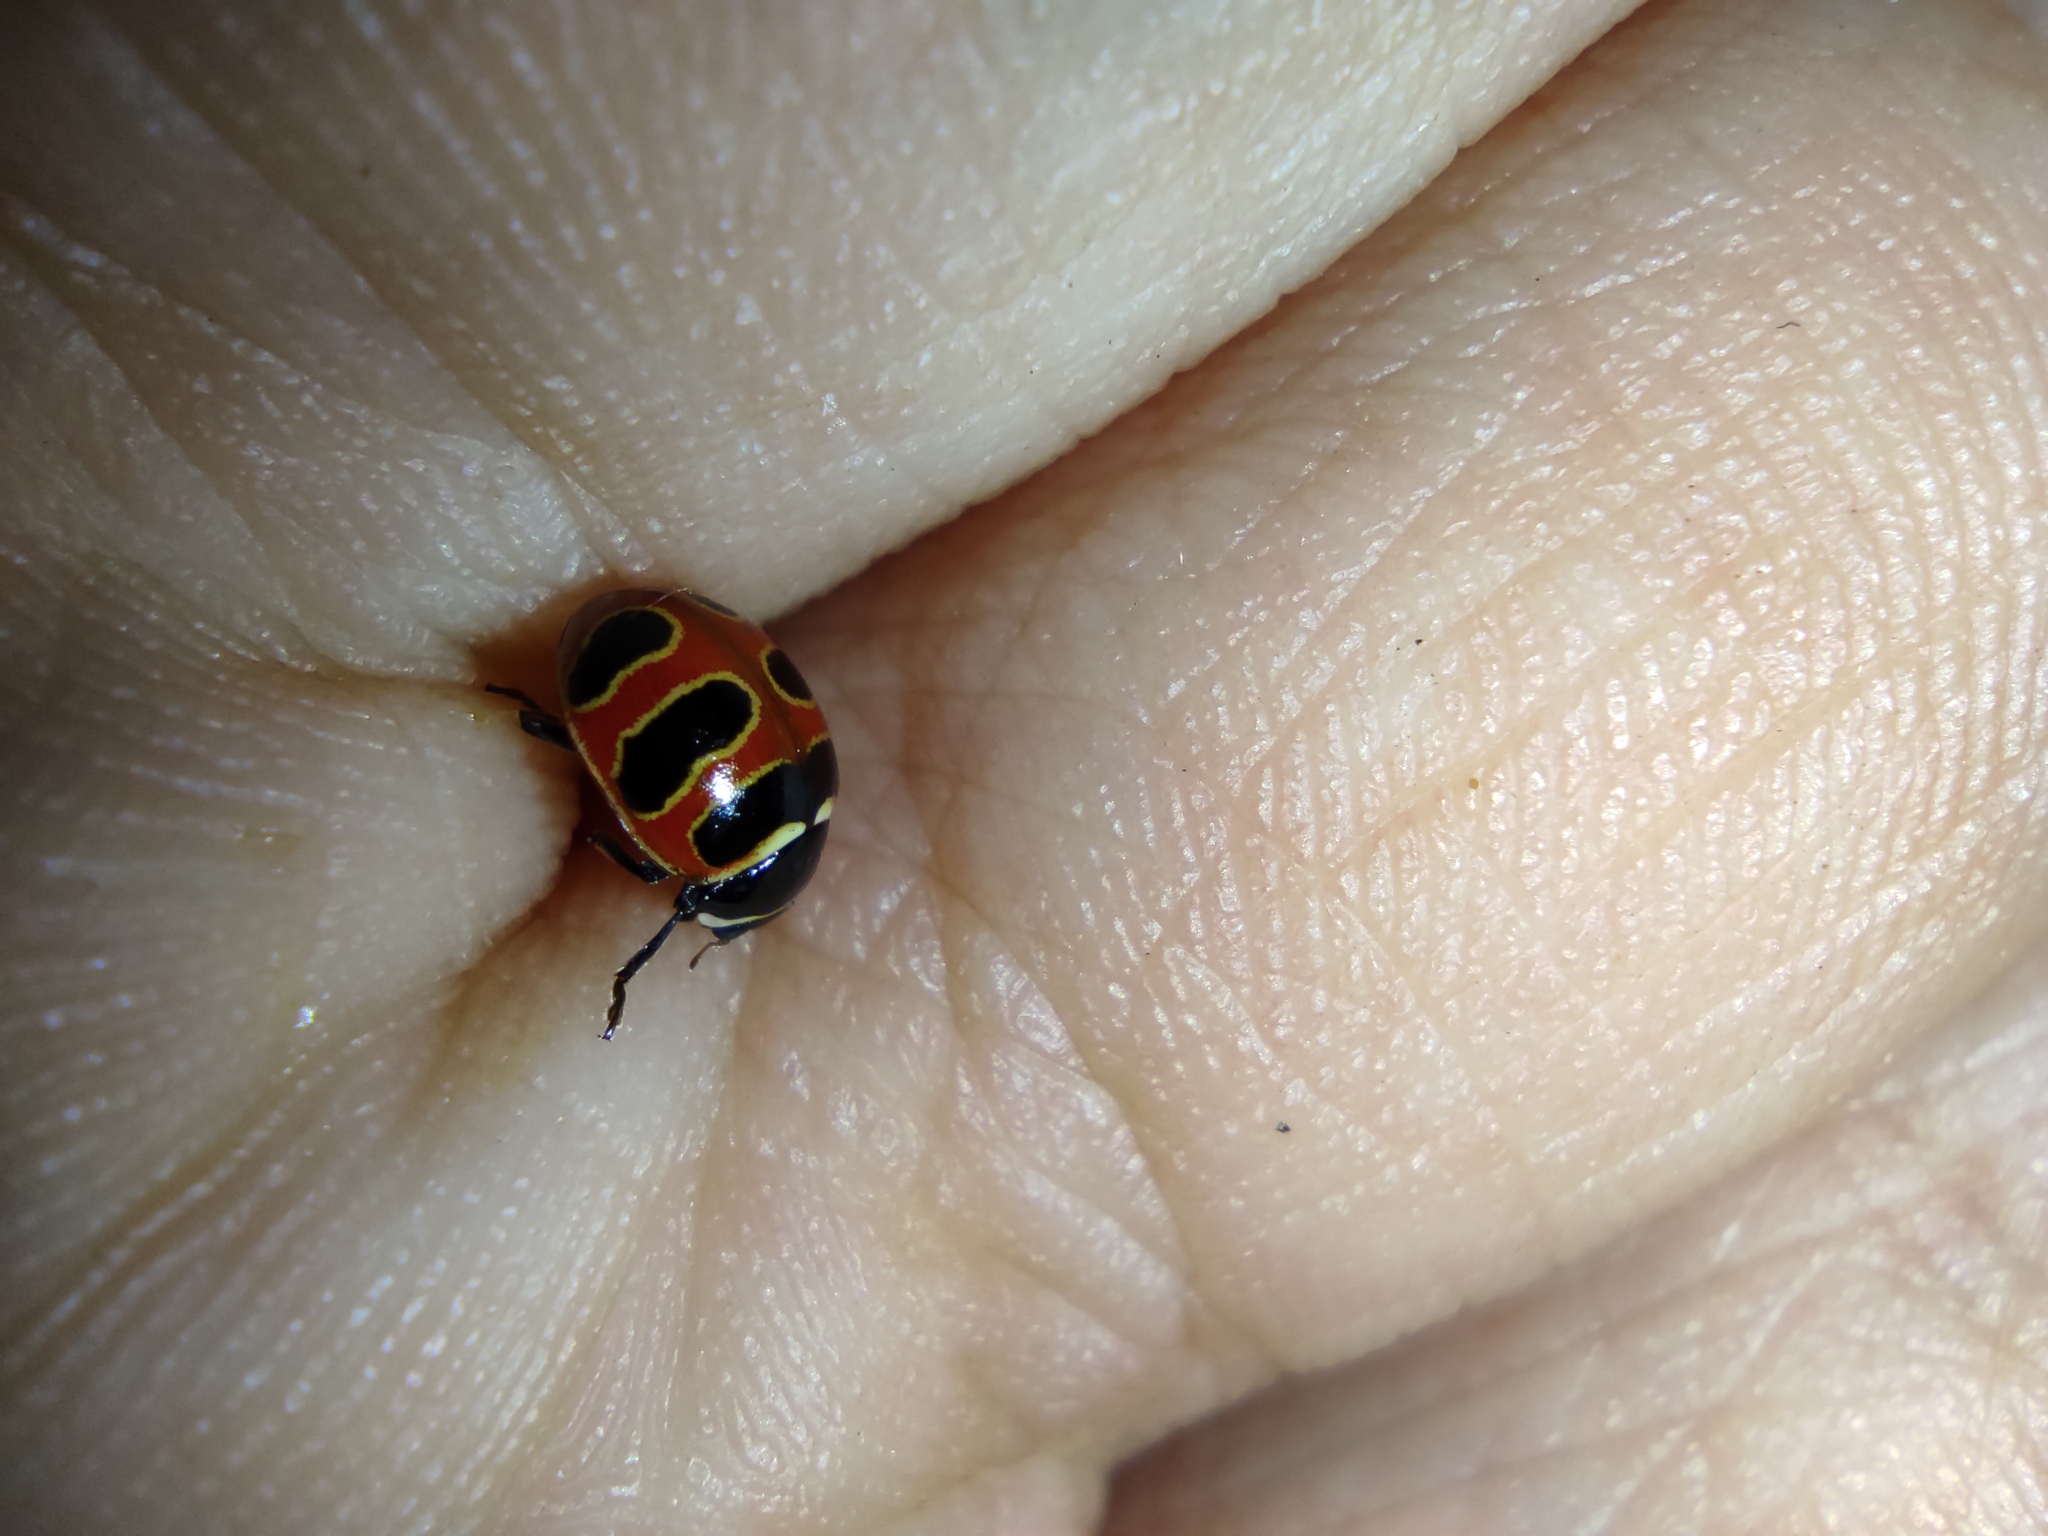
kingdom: Animalia
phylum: Arthropoda
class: Insecta
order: Coleoptera
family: Coccinellidae
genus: Coccinella
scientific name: Coccinella trifasciata
